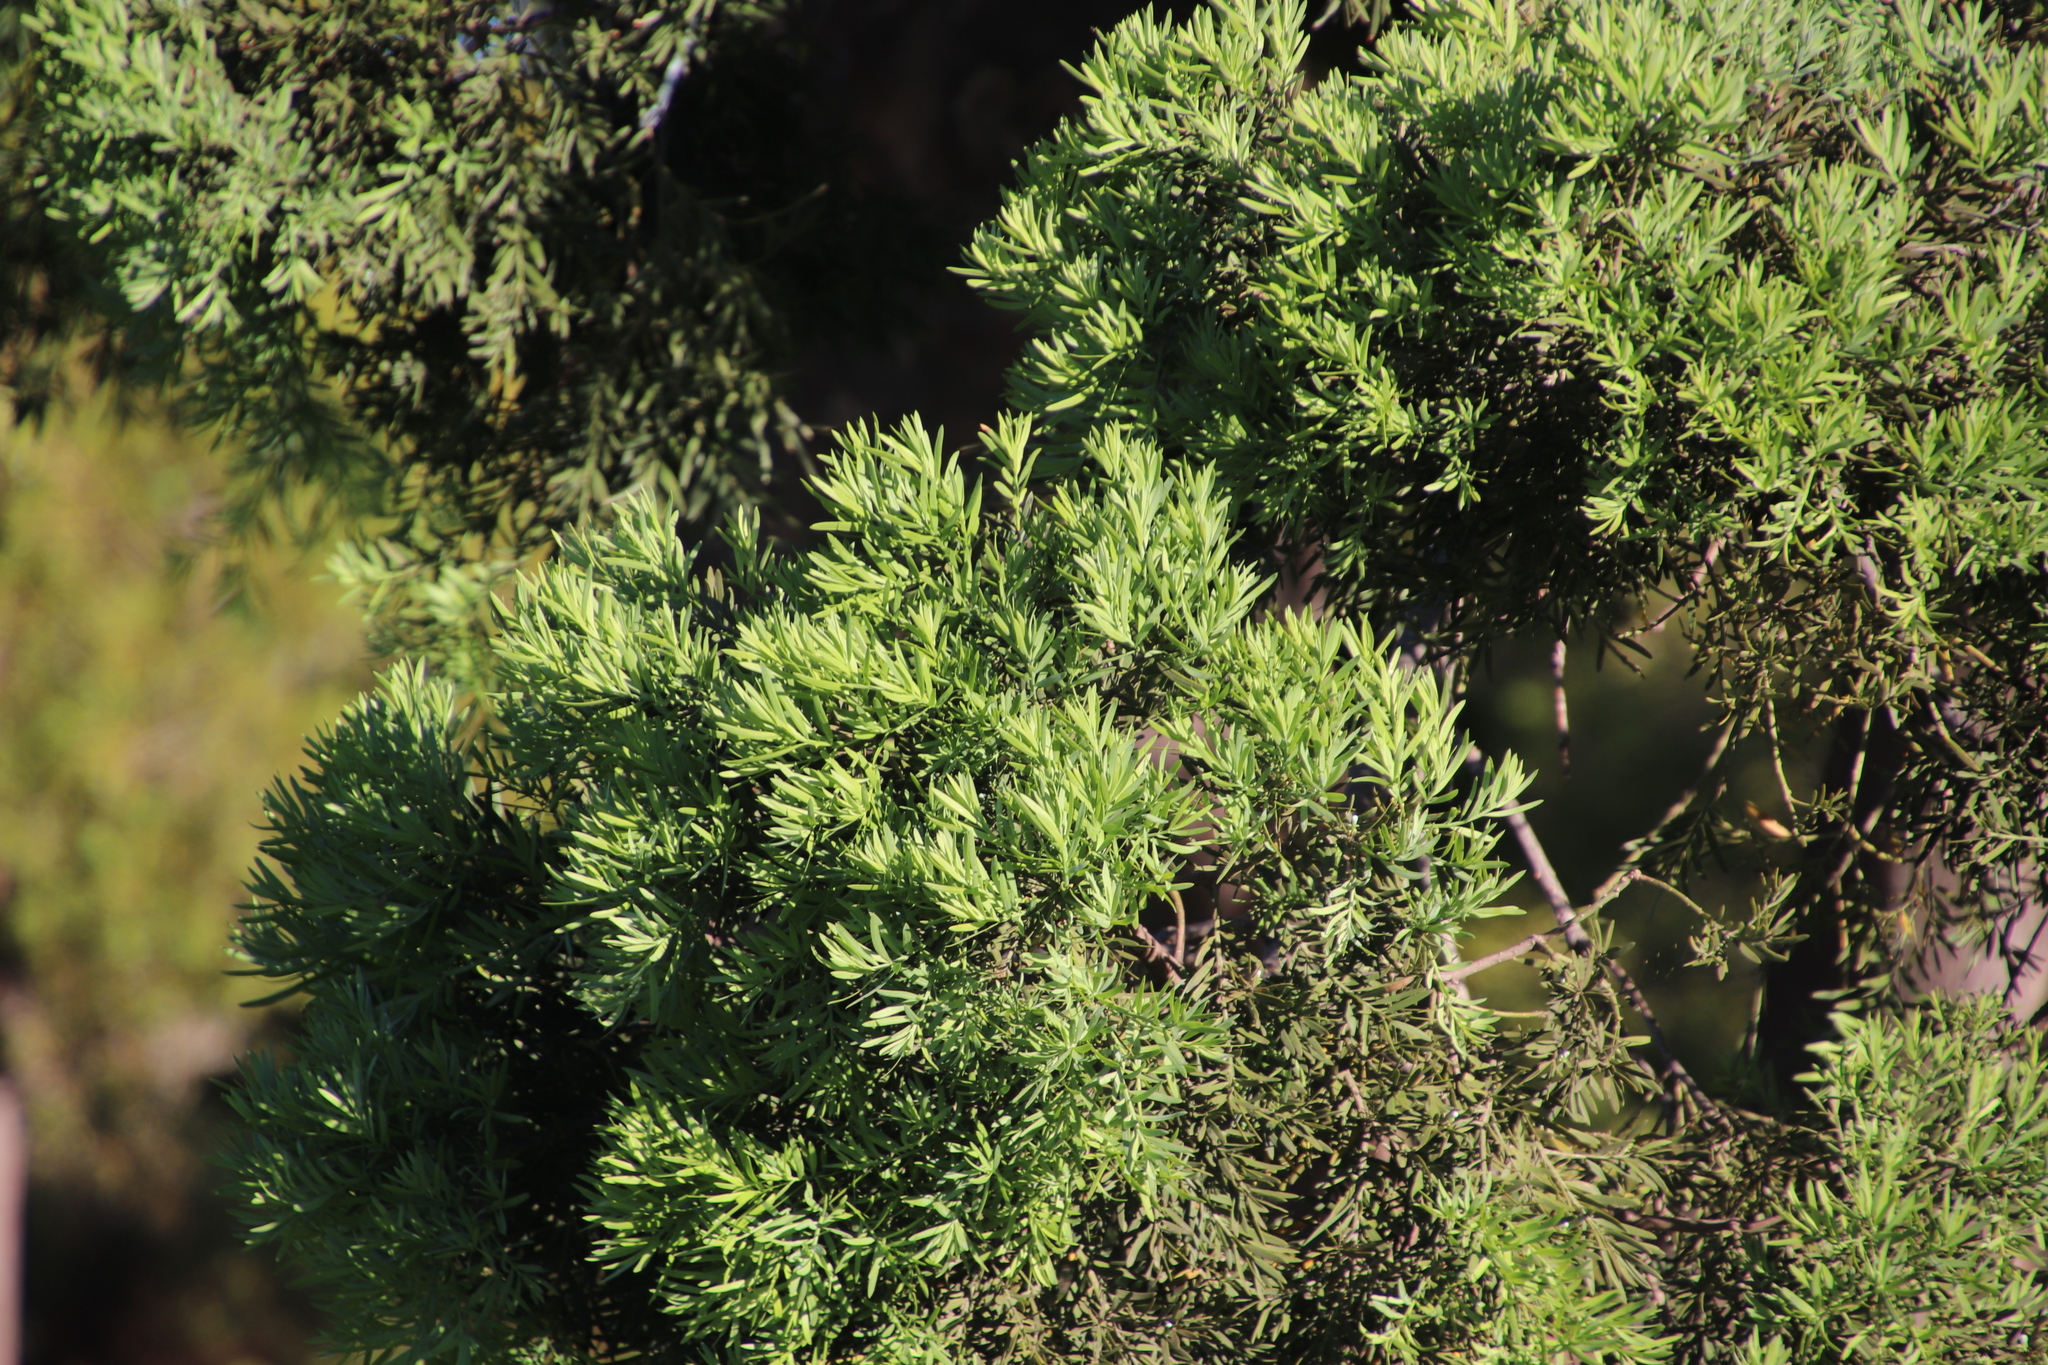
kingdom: Plantae
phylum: Tracheophyta
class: Pinopsida
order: Pinales
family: Podocarpaceae
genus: Afrocarpus
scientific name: Afrocarpus falcatus
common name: Bastard yellowwood
